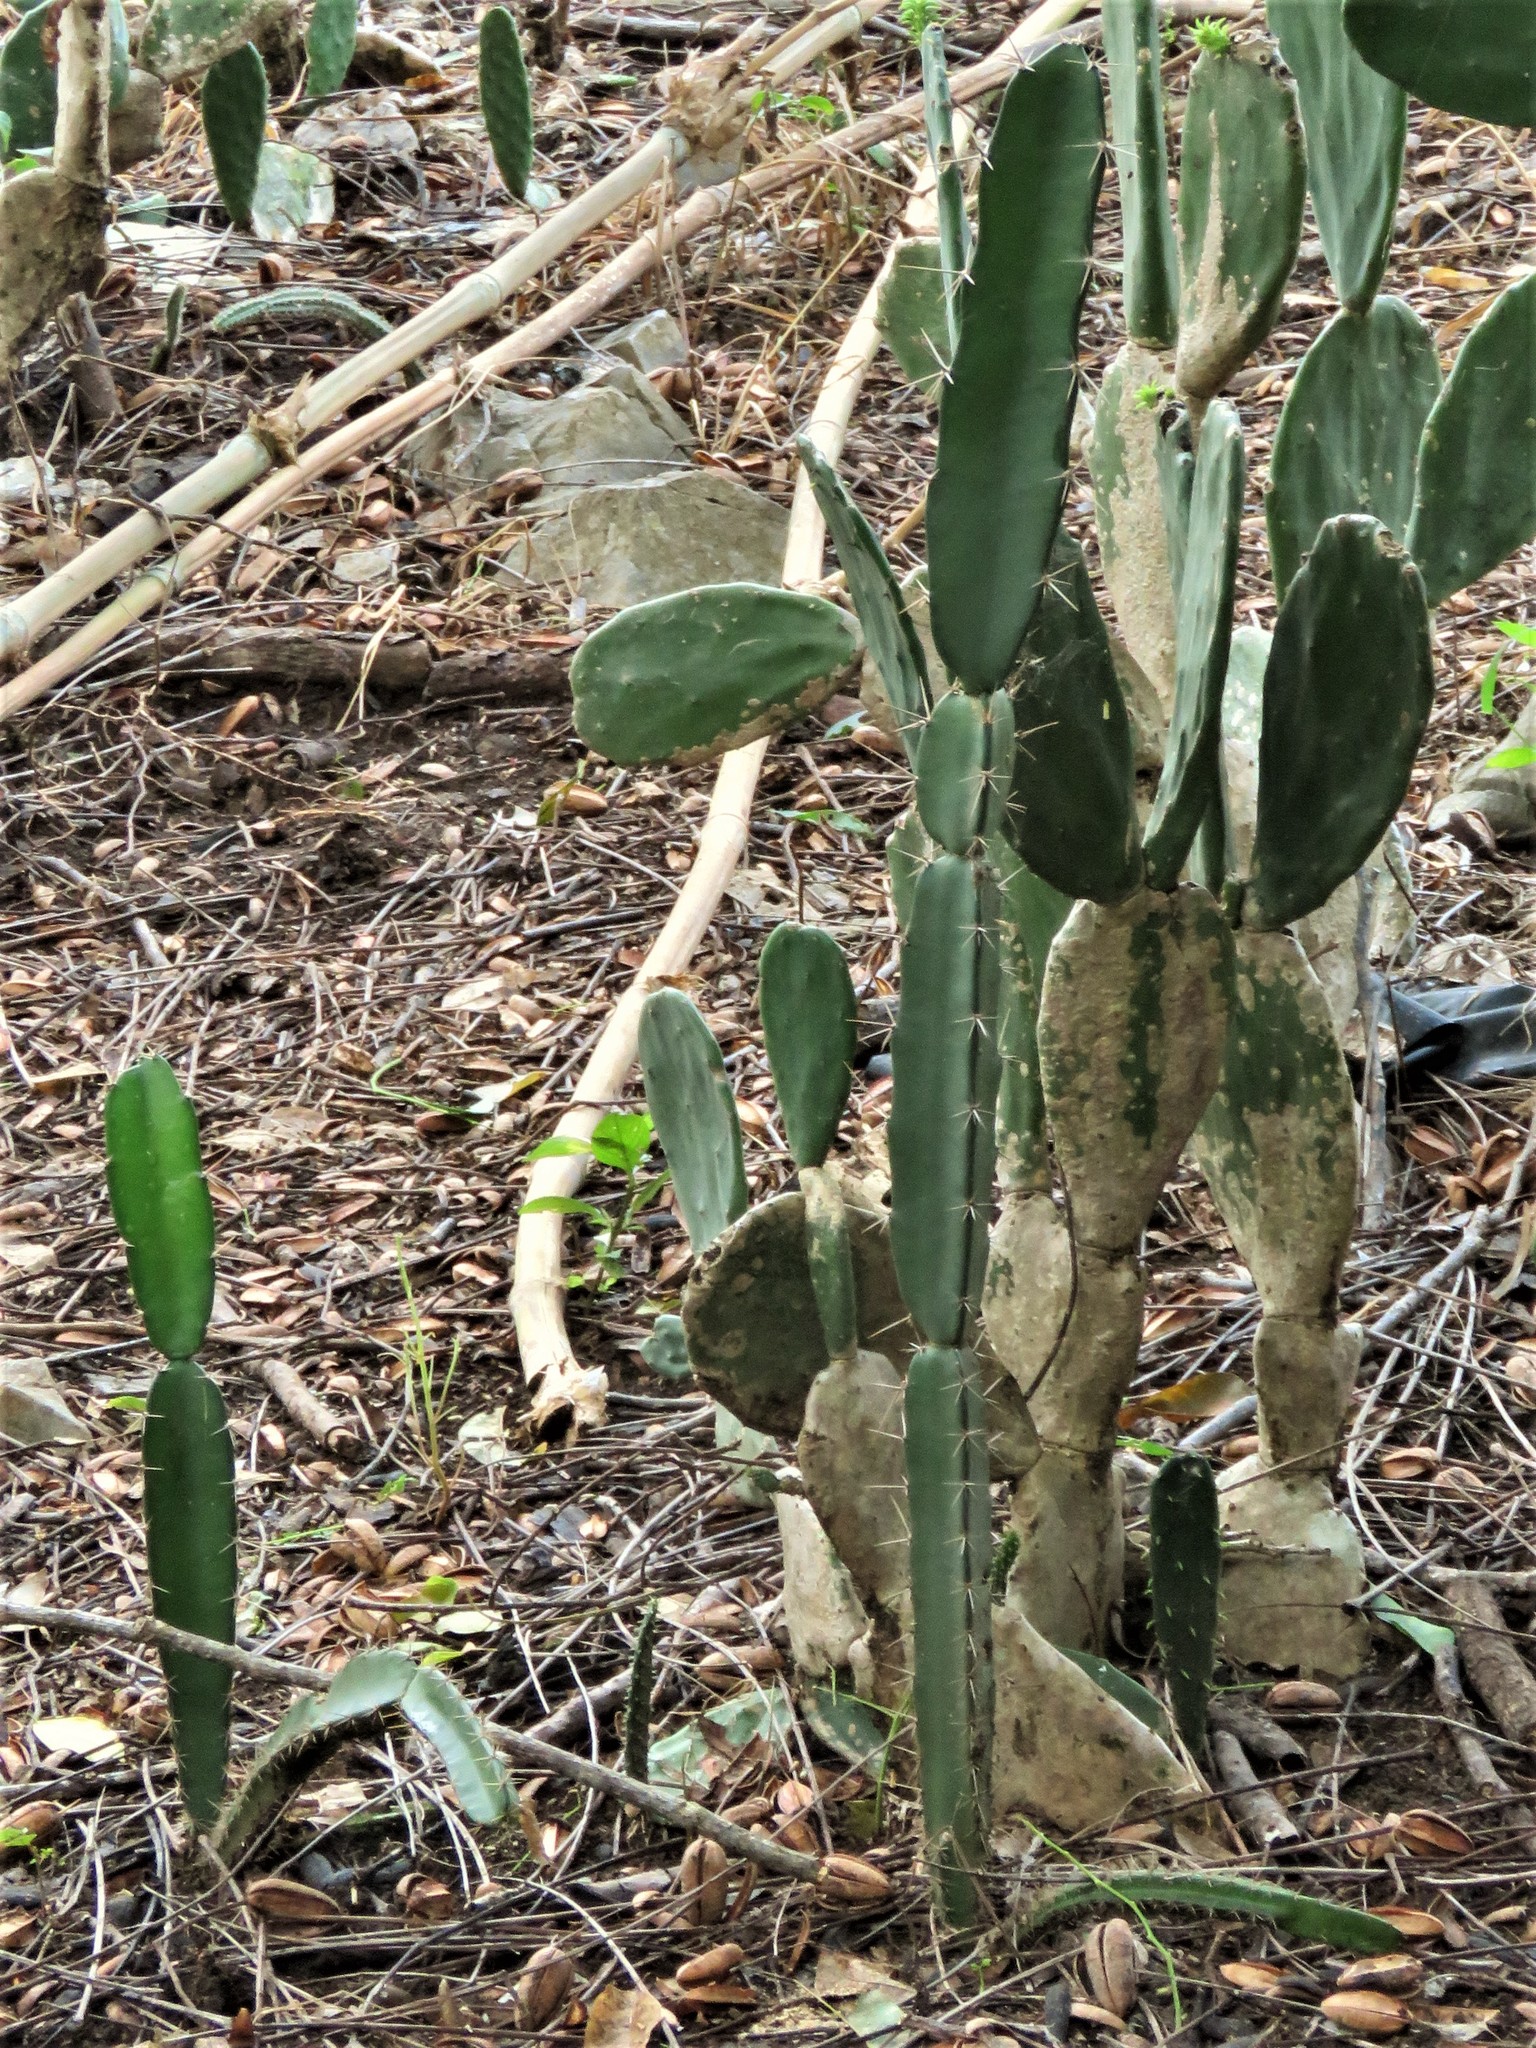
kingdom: Plantae
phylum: Tracheophyta
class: Magnoliopsida
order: Caryophyllales
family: Cactaceae
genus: Acanthocereus
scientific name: Acanthocereus tetragonus
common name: Triangle cactus
